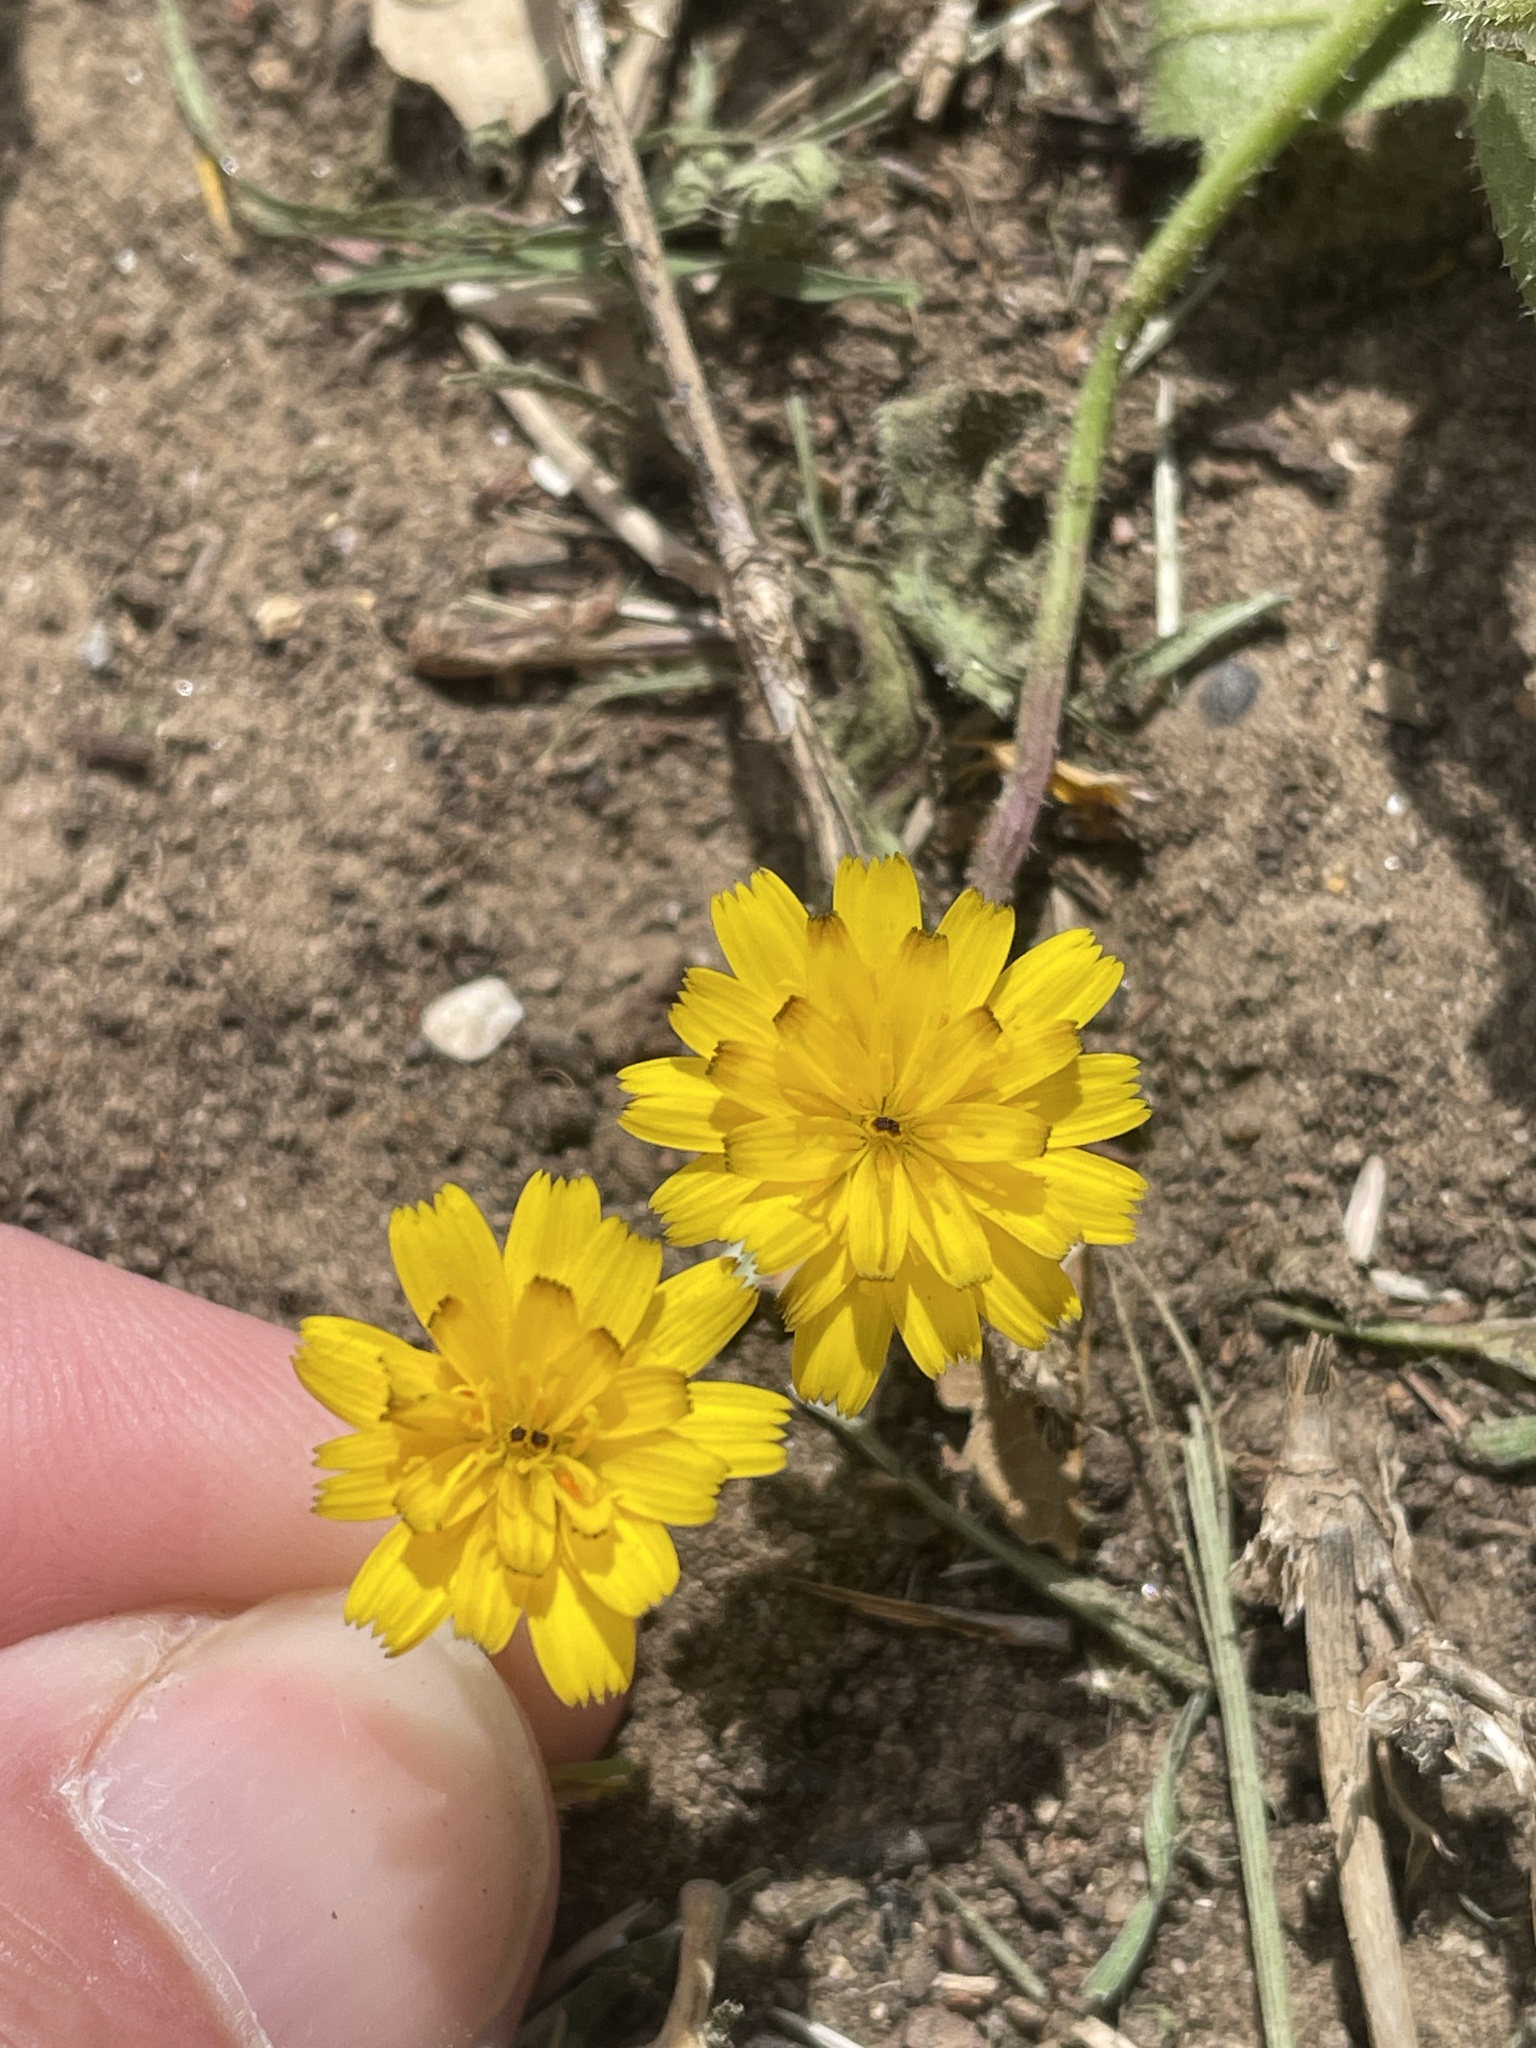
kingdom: Plantae
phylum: Tracheophyta
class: Magnoliopsida
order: Asterales
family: Asteraceae
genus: Hedypnois
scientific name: Hedypnois rhagadioloides
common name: Cretan weed
